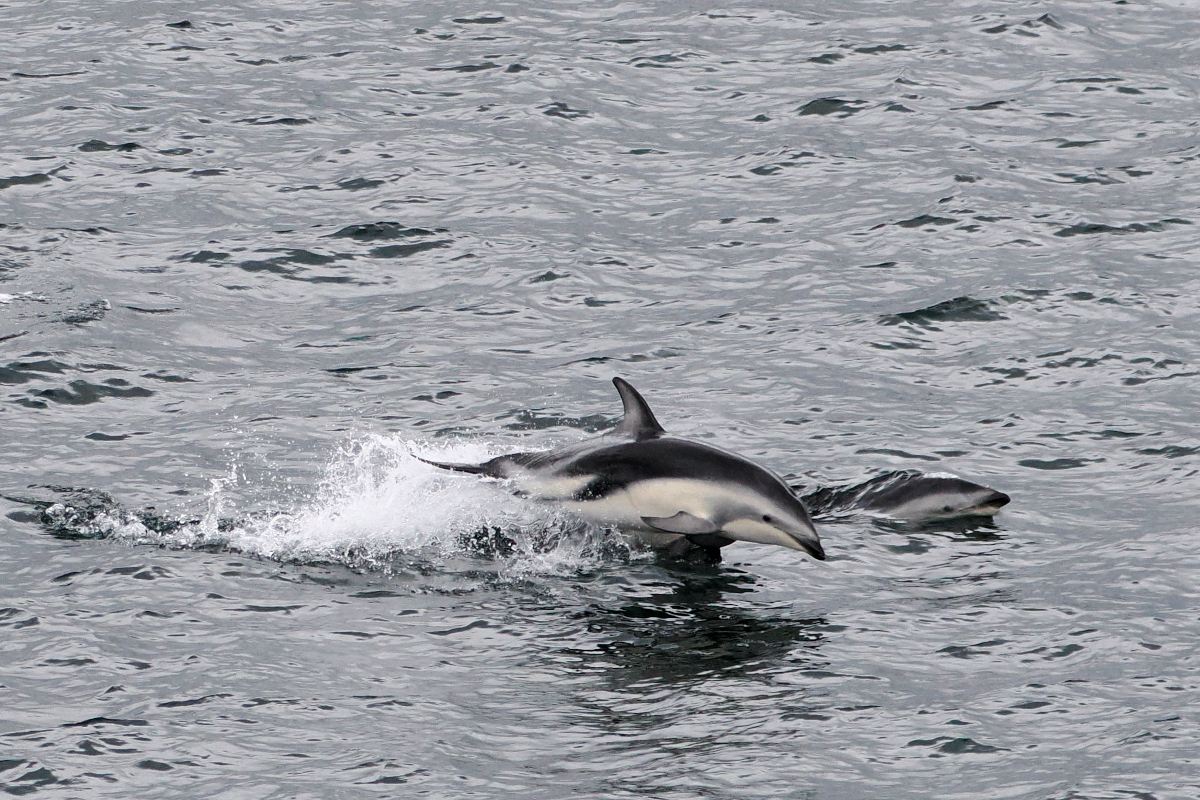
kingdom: Animalia
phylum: Chordata
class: Mammalia
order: Cetacea
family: Delphinidae
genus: Lagenorhynchus
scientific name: Lagenorhynchus obscurus
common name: Dusky dolphin
